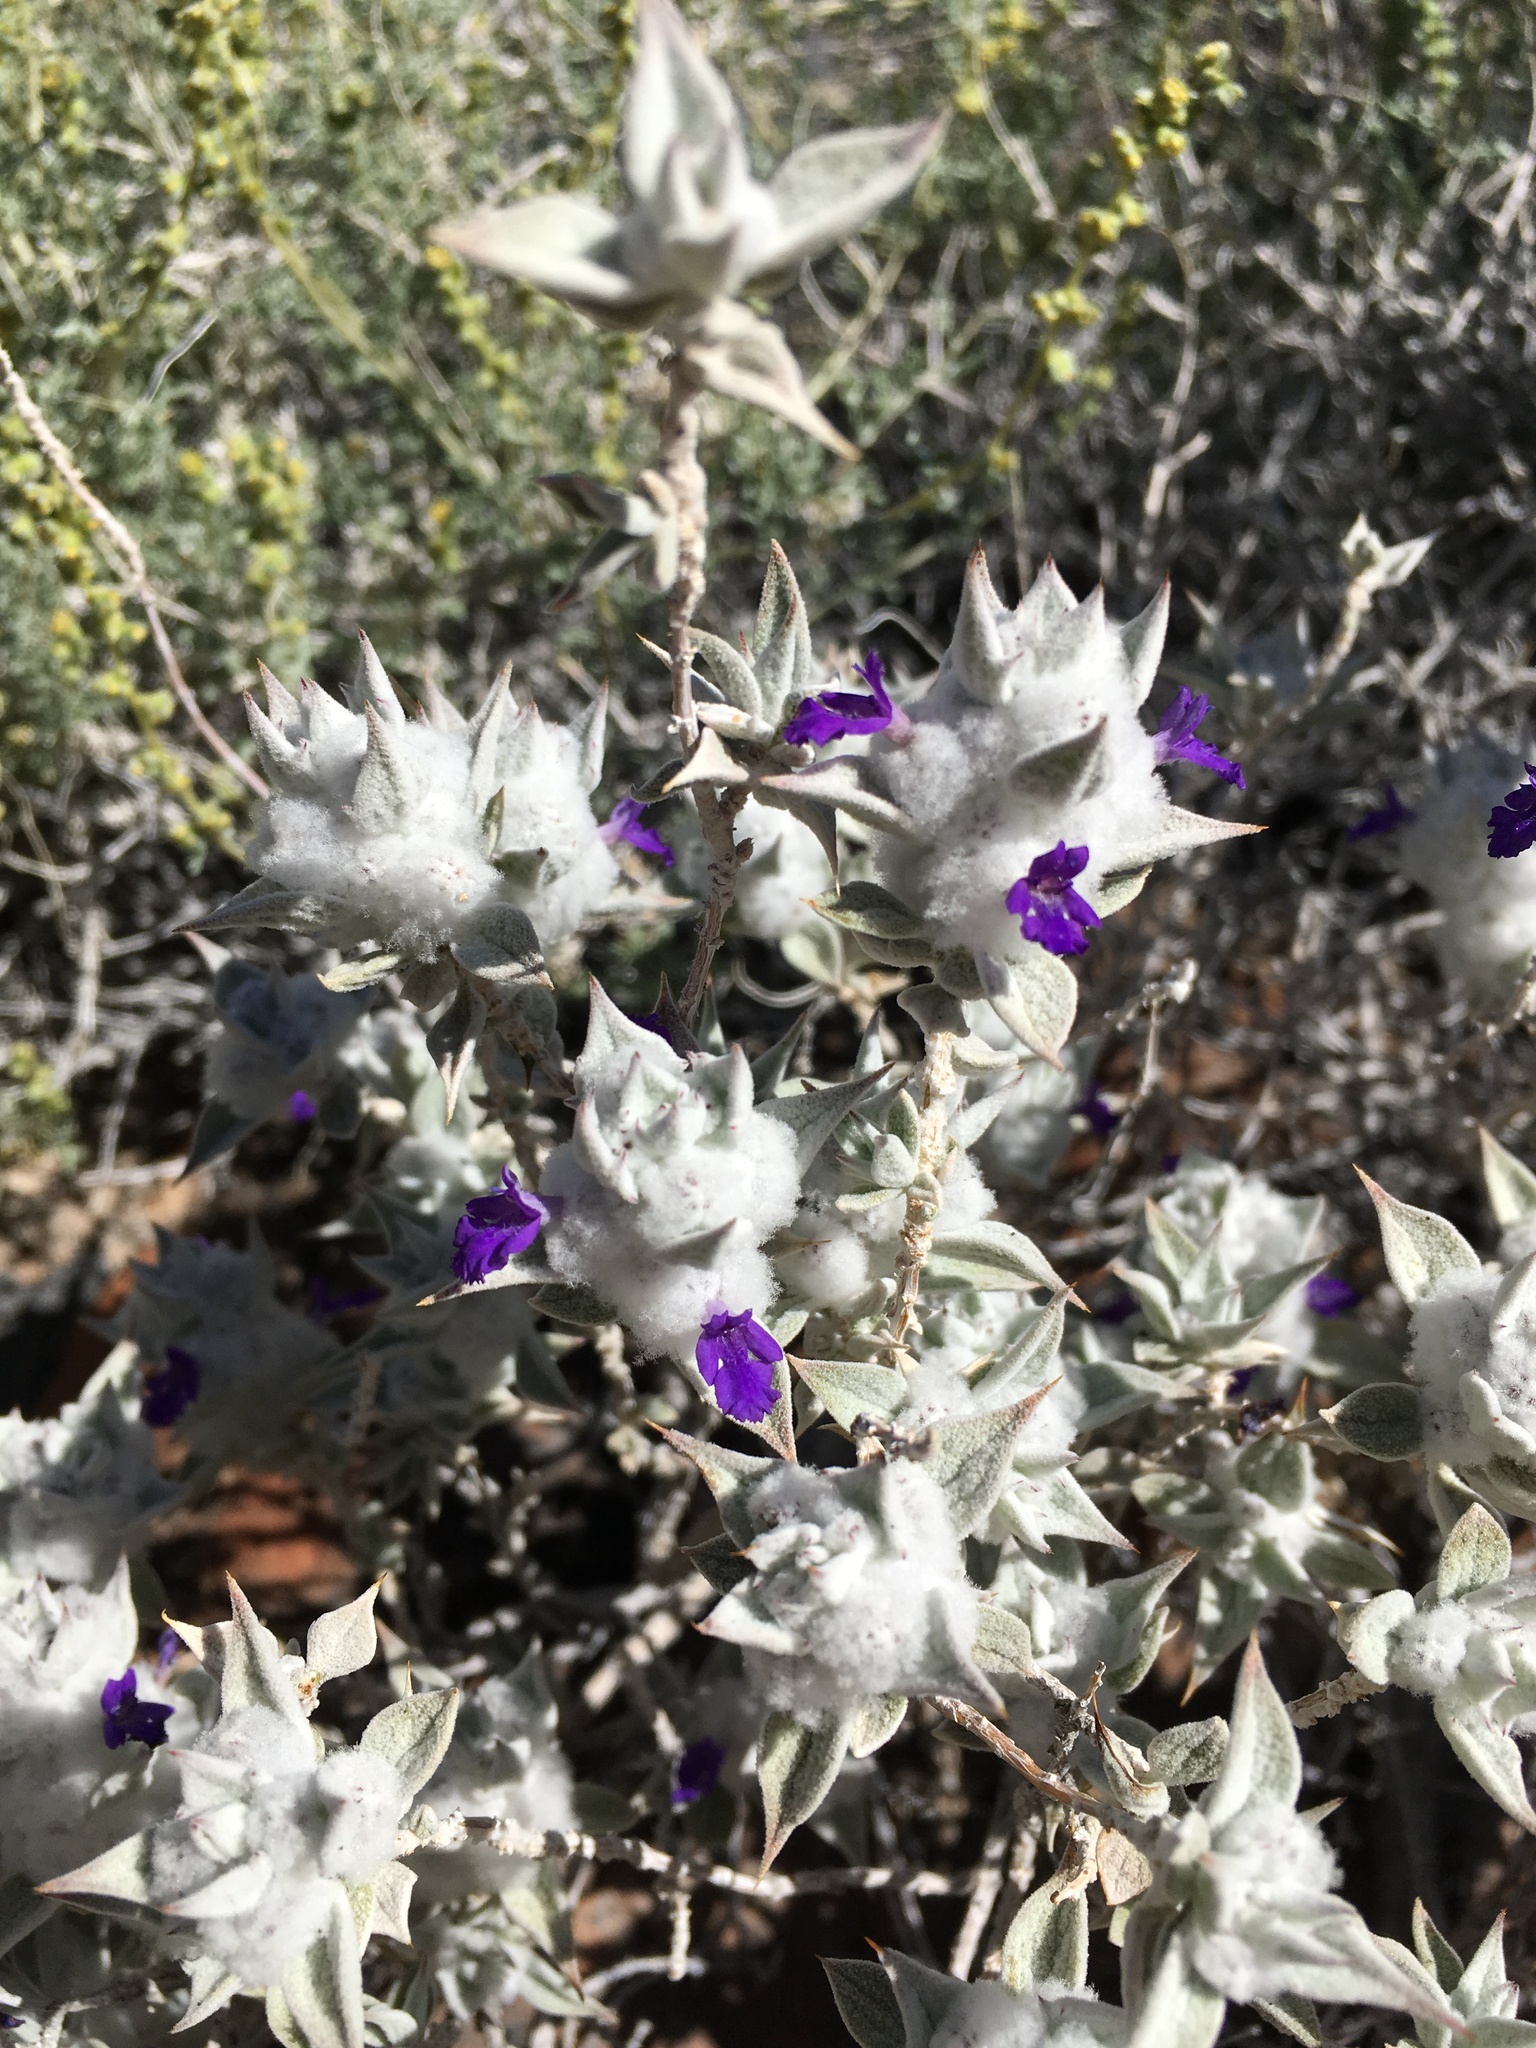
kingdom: Plantae
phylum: Tracheophyta
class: Magnoliopsida
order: Lamiales
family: Lamiaceae
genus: Salvia
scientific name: Salvia funerea
